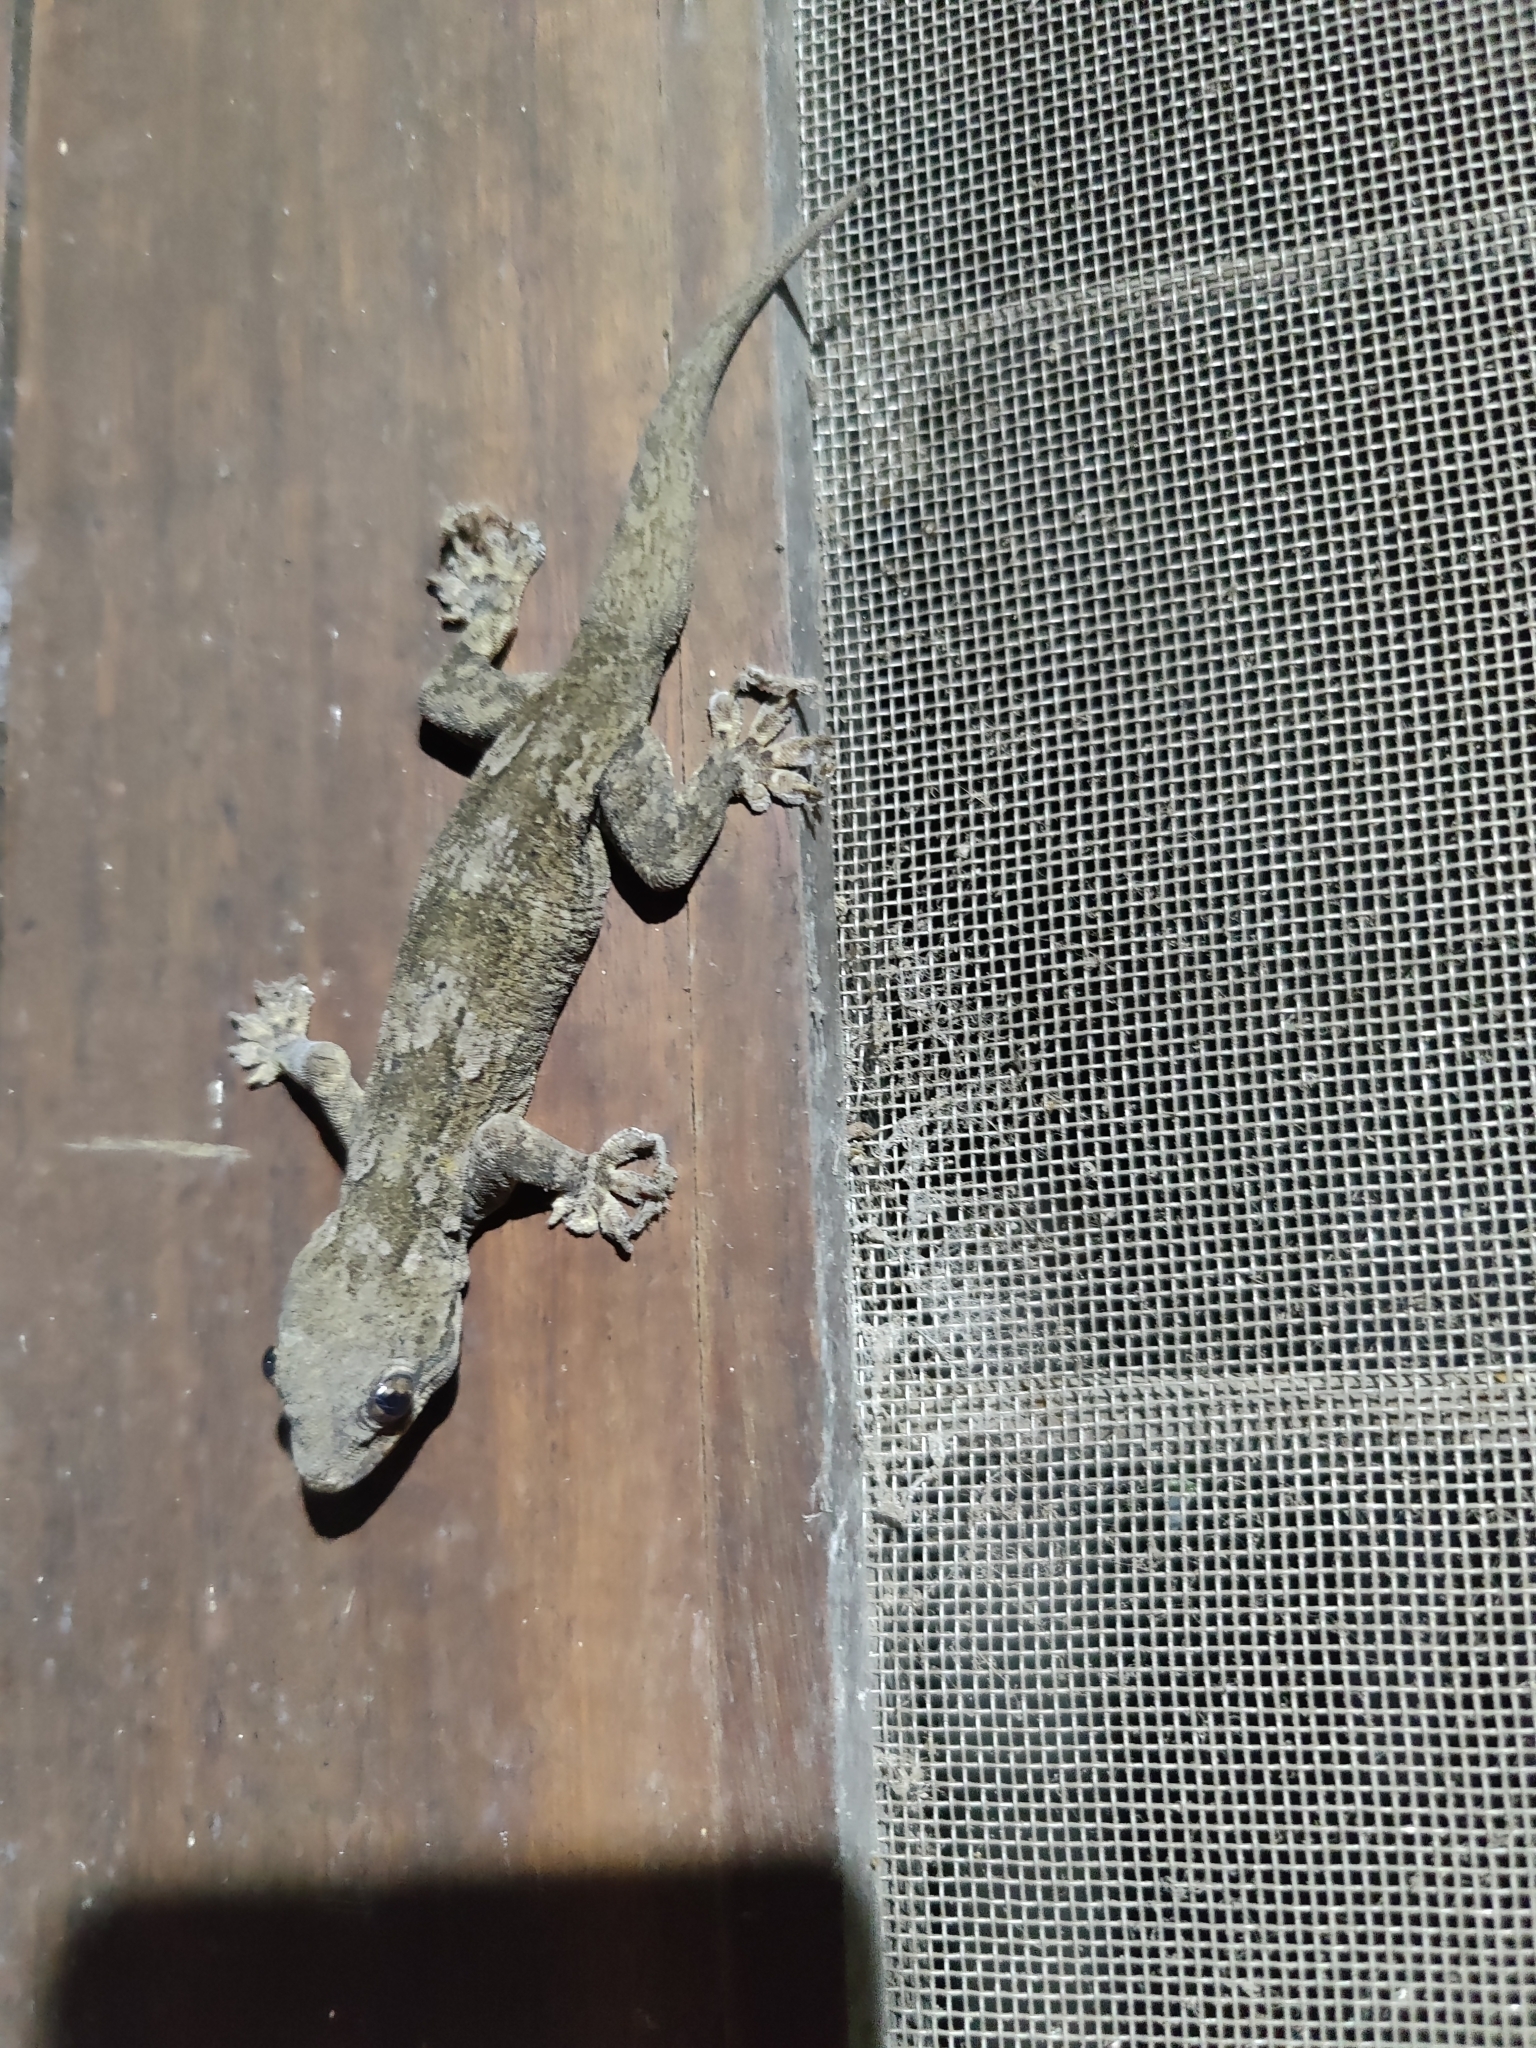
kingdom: Animalia
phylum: Chordata
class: Squamata
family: Gekkonidae
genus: Hemidactylus
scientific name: Hemidactylus flaviviridis
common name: Northern house gecko
